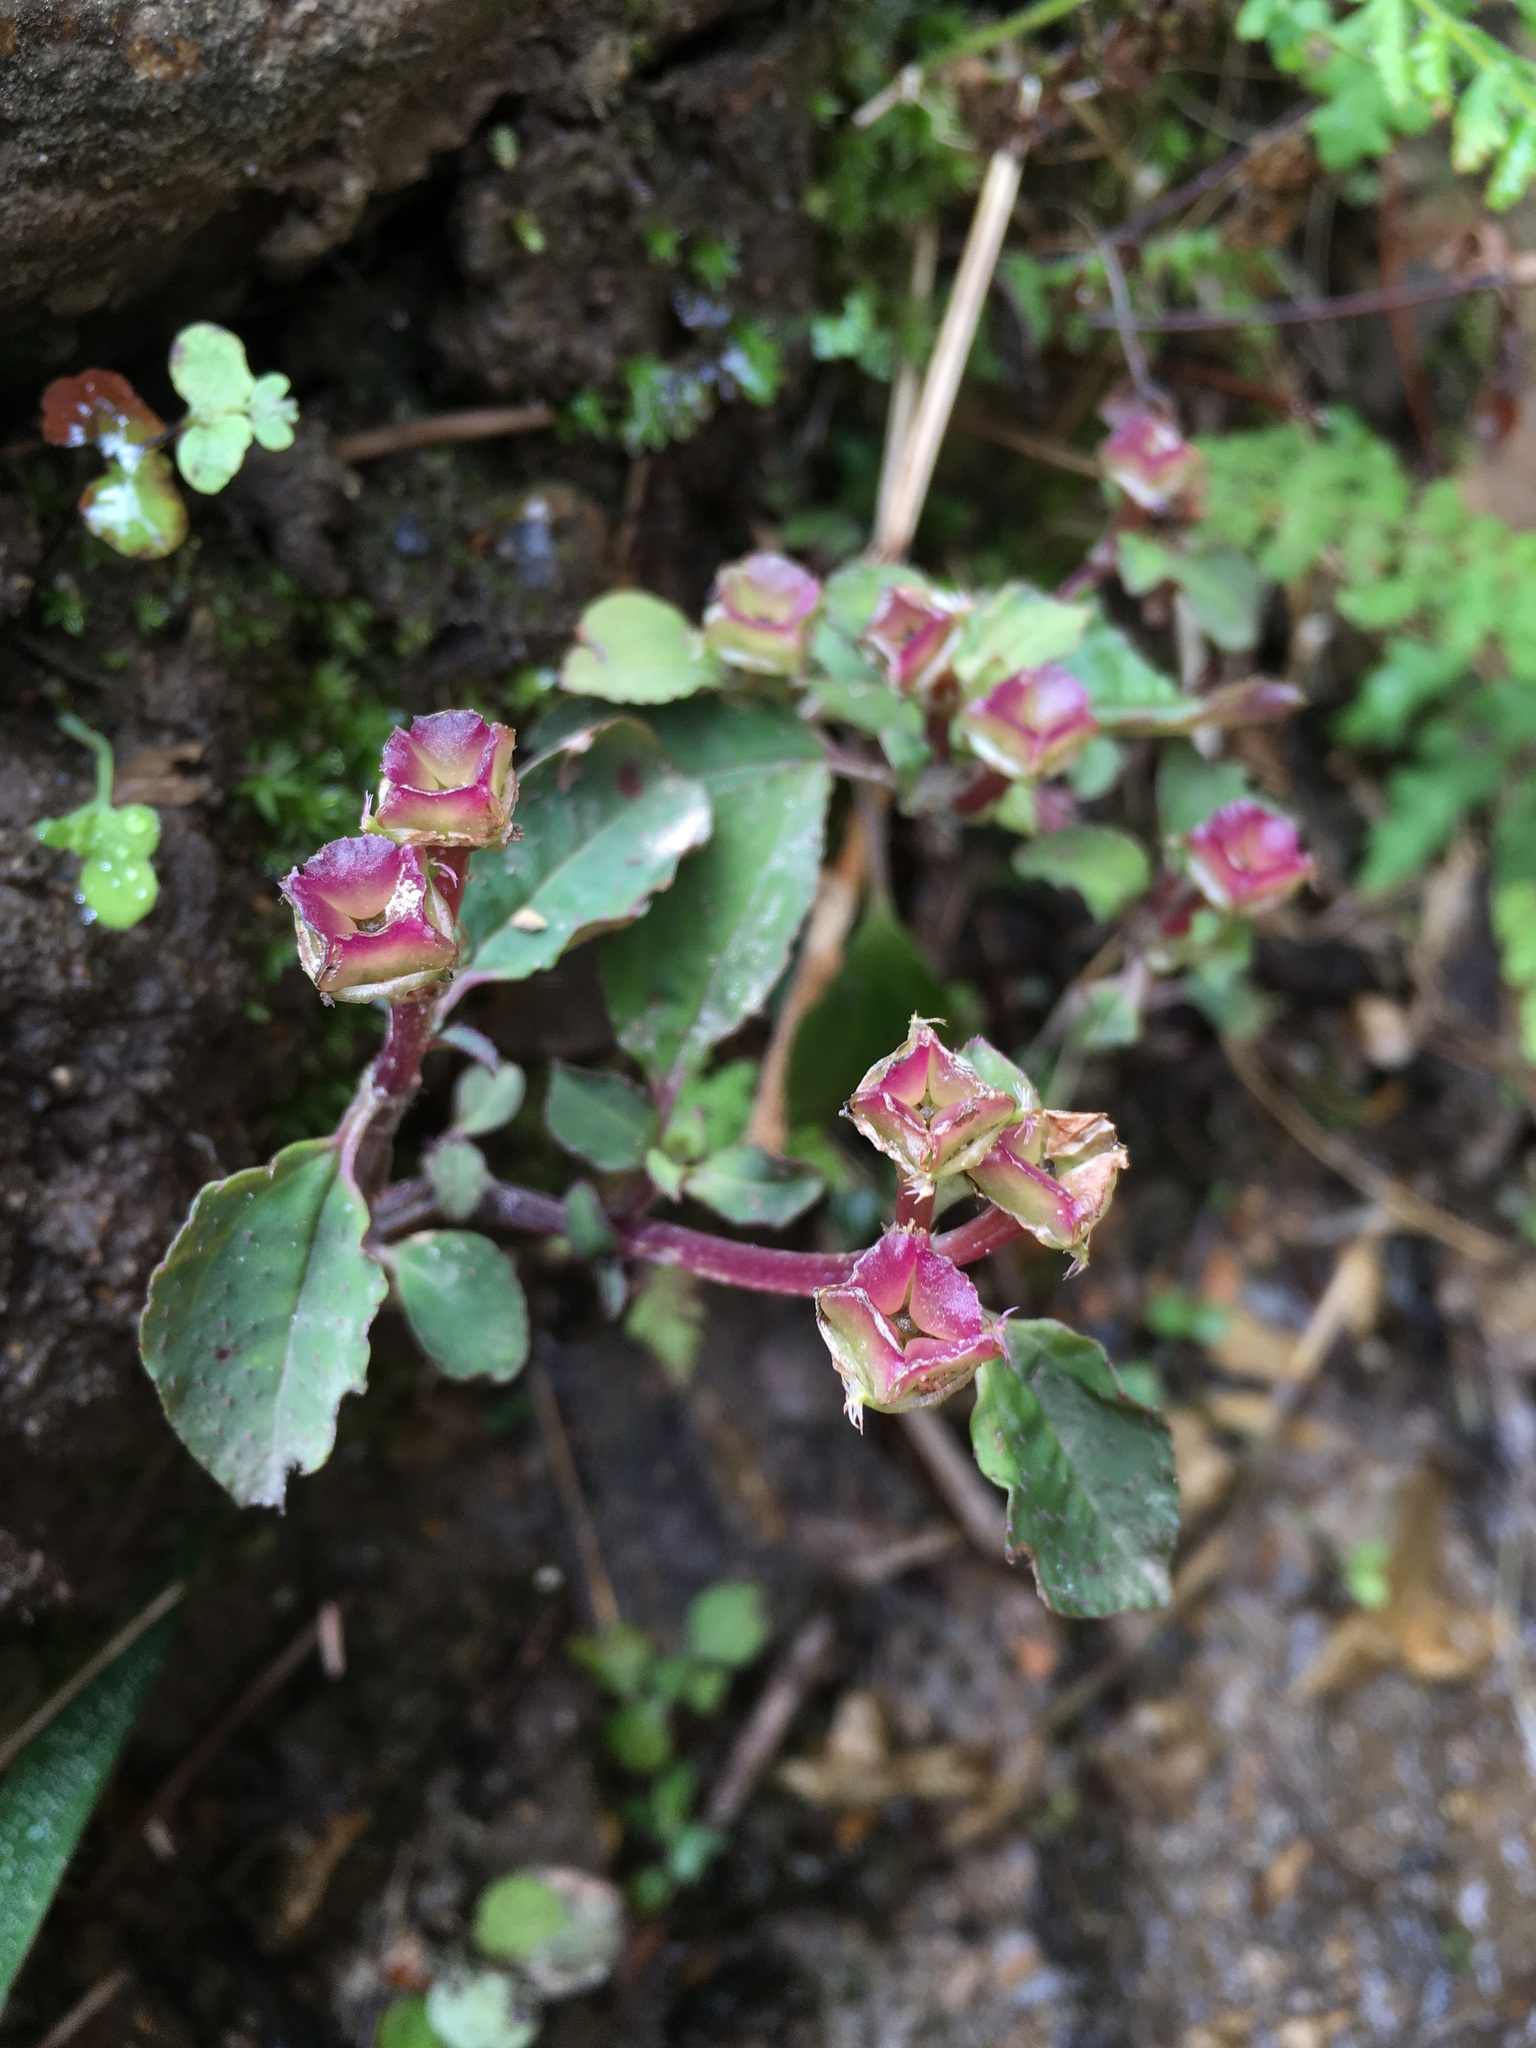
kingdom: Plantae
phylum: Tracheophyta
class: Magnoliopsida
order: Myrtales
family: Melastomataceae
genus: Sarcopyramis
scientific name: Sarcopyramis napalensis
